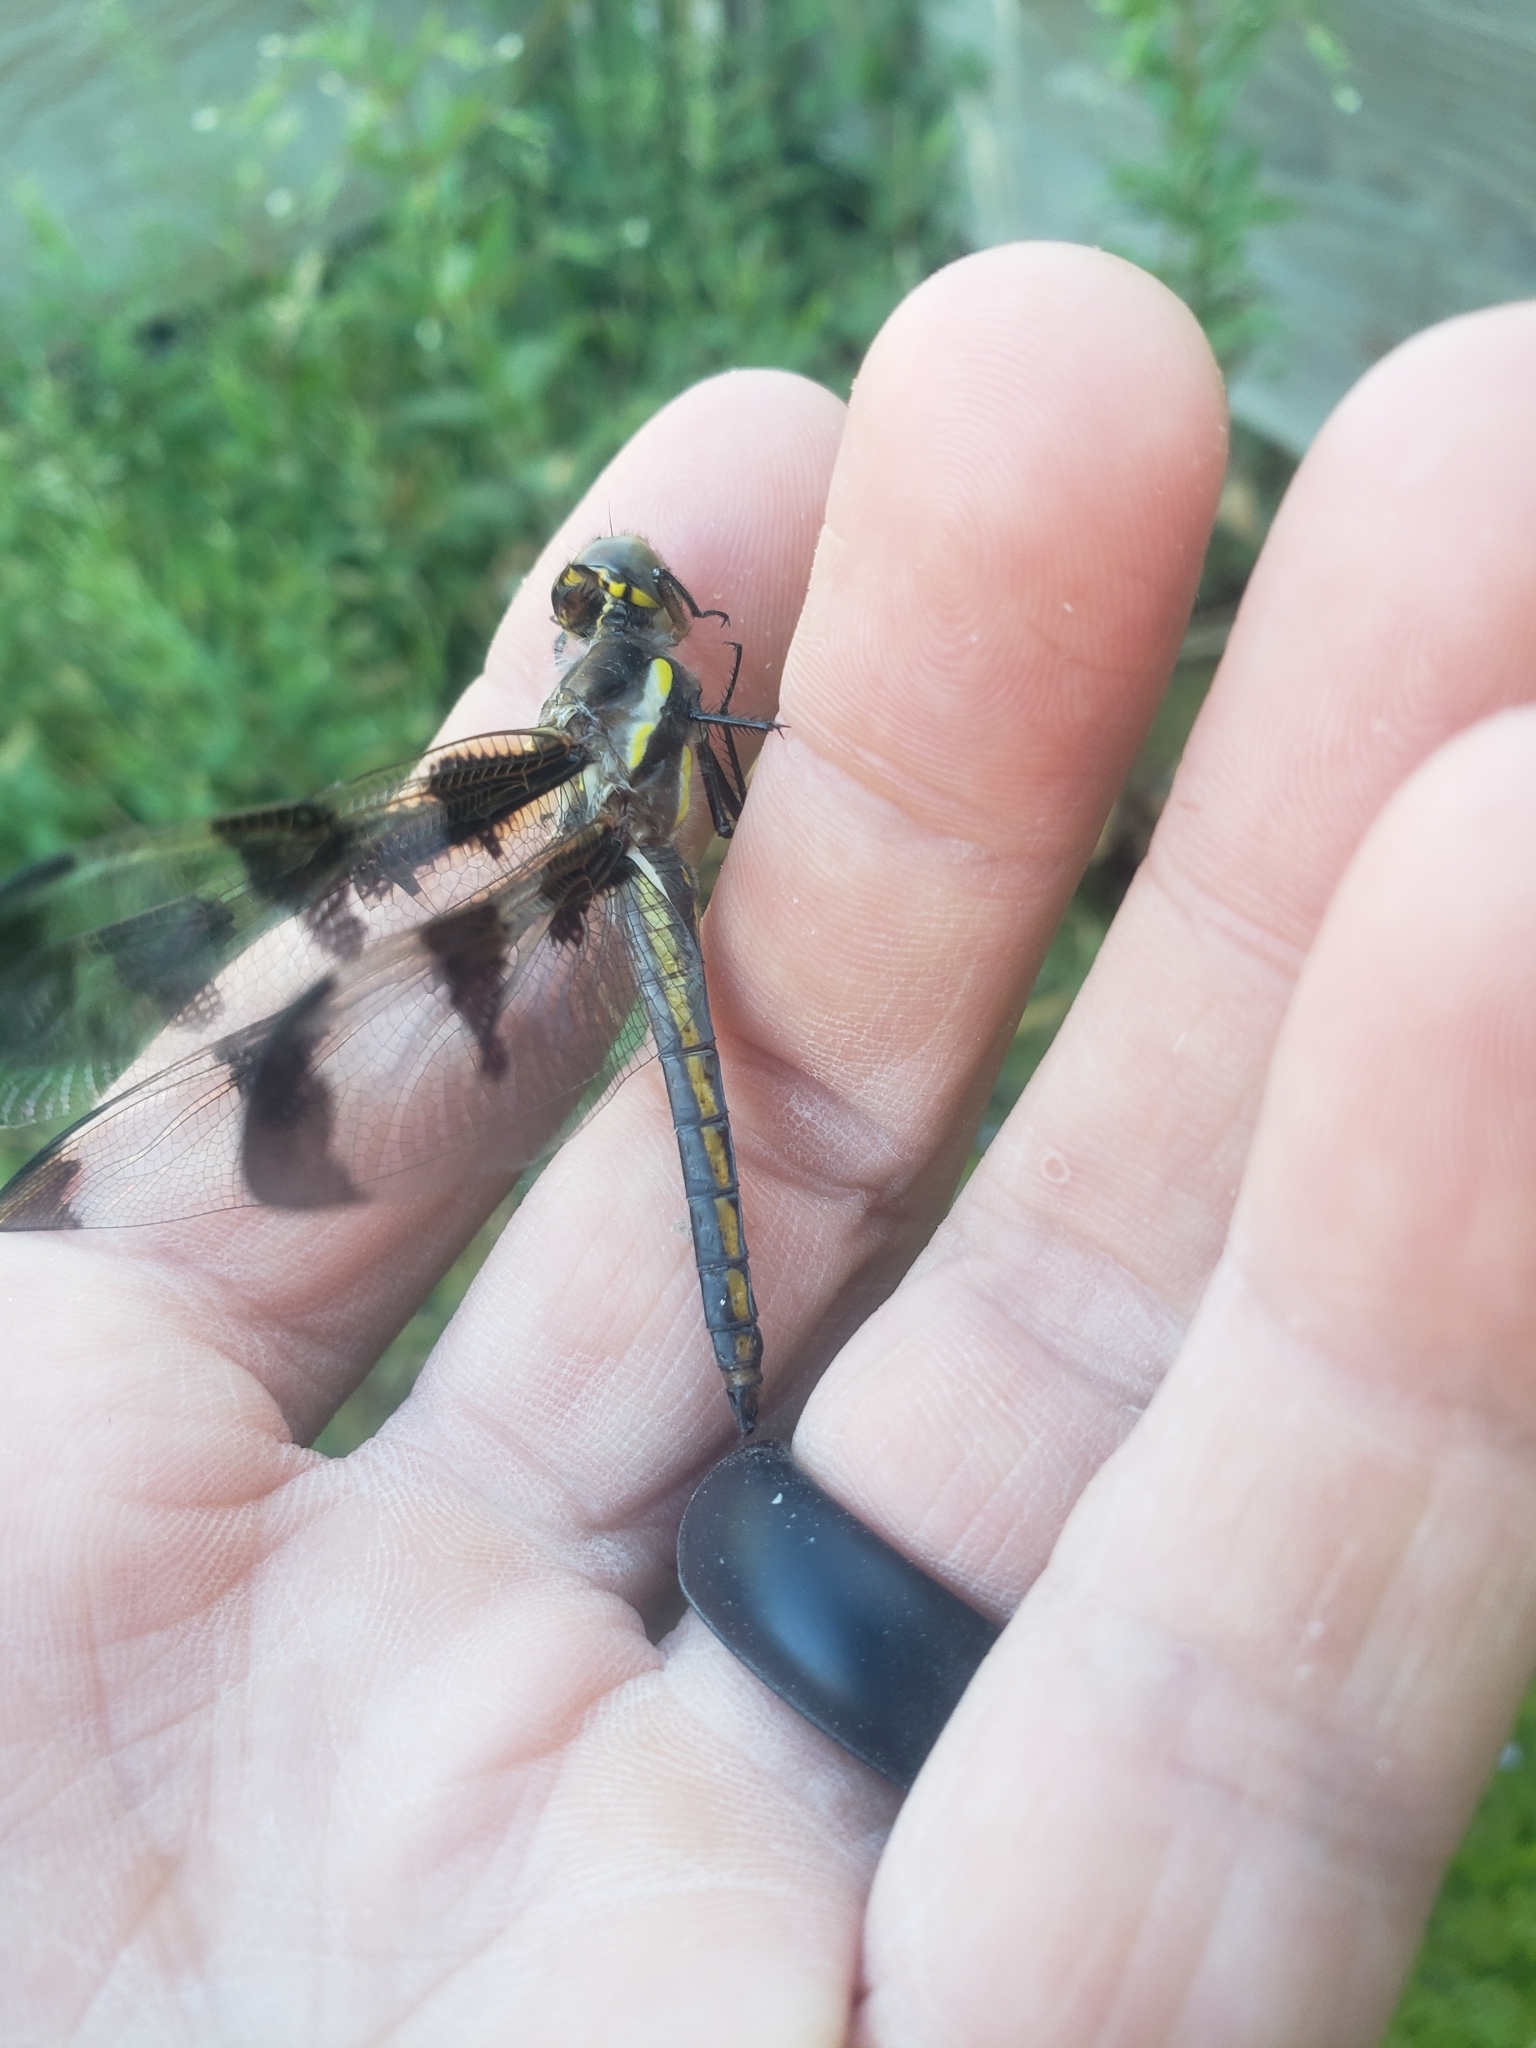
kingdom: Animalia
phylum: Arthropoda
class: Insecta
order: Odonata
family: Libellulidae
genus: Libellula
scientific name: Libellula pulchella
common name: Twelve-spotted skimmer
